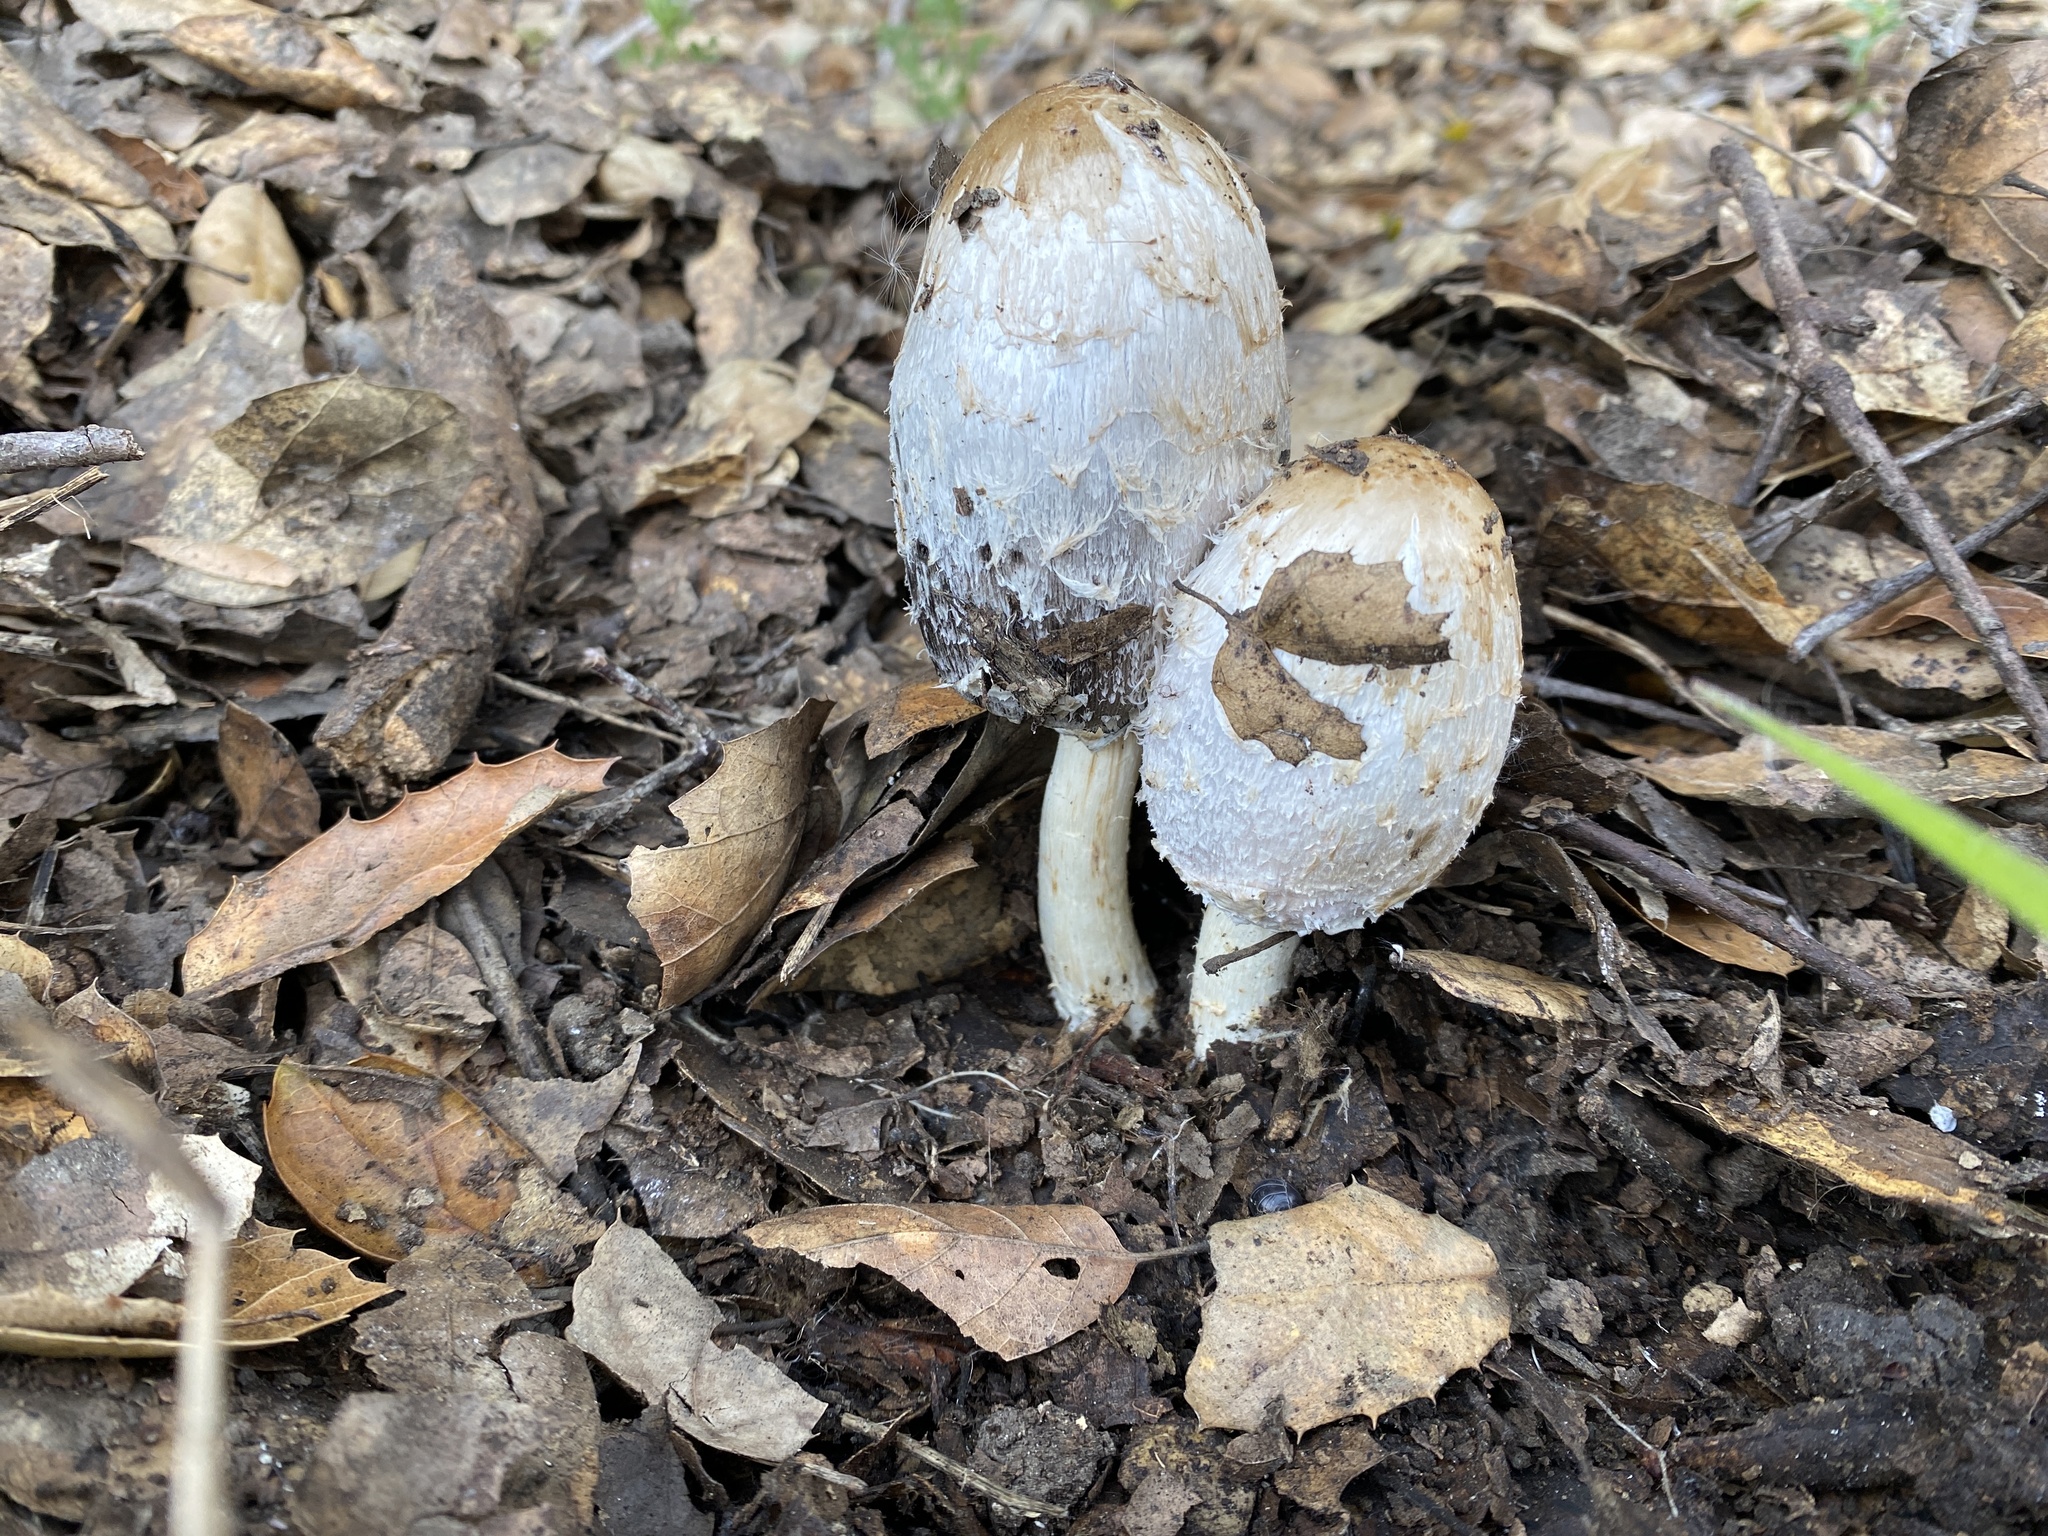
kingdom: Fungi
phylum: Basidiomycota
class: Agaricomycetes
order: Agaricales
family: Agaricaceae
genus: Coprinus
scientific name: Coprinus comatus
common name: Lawyer's wig
